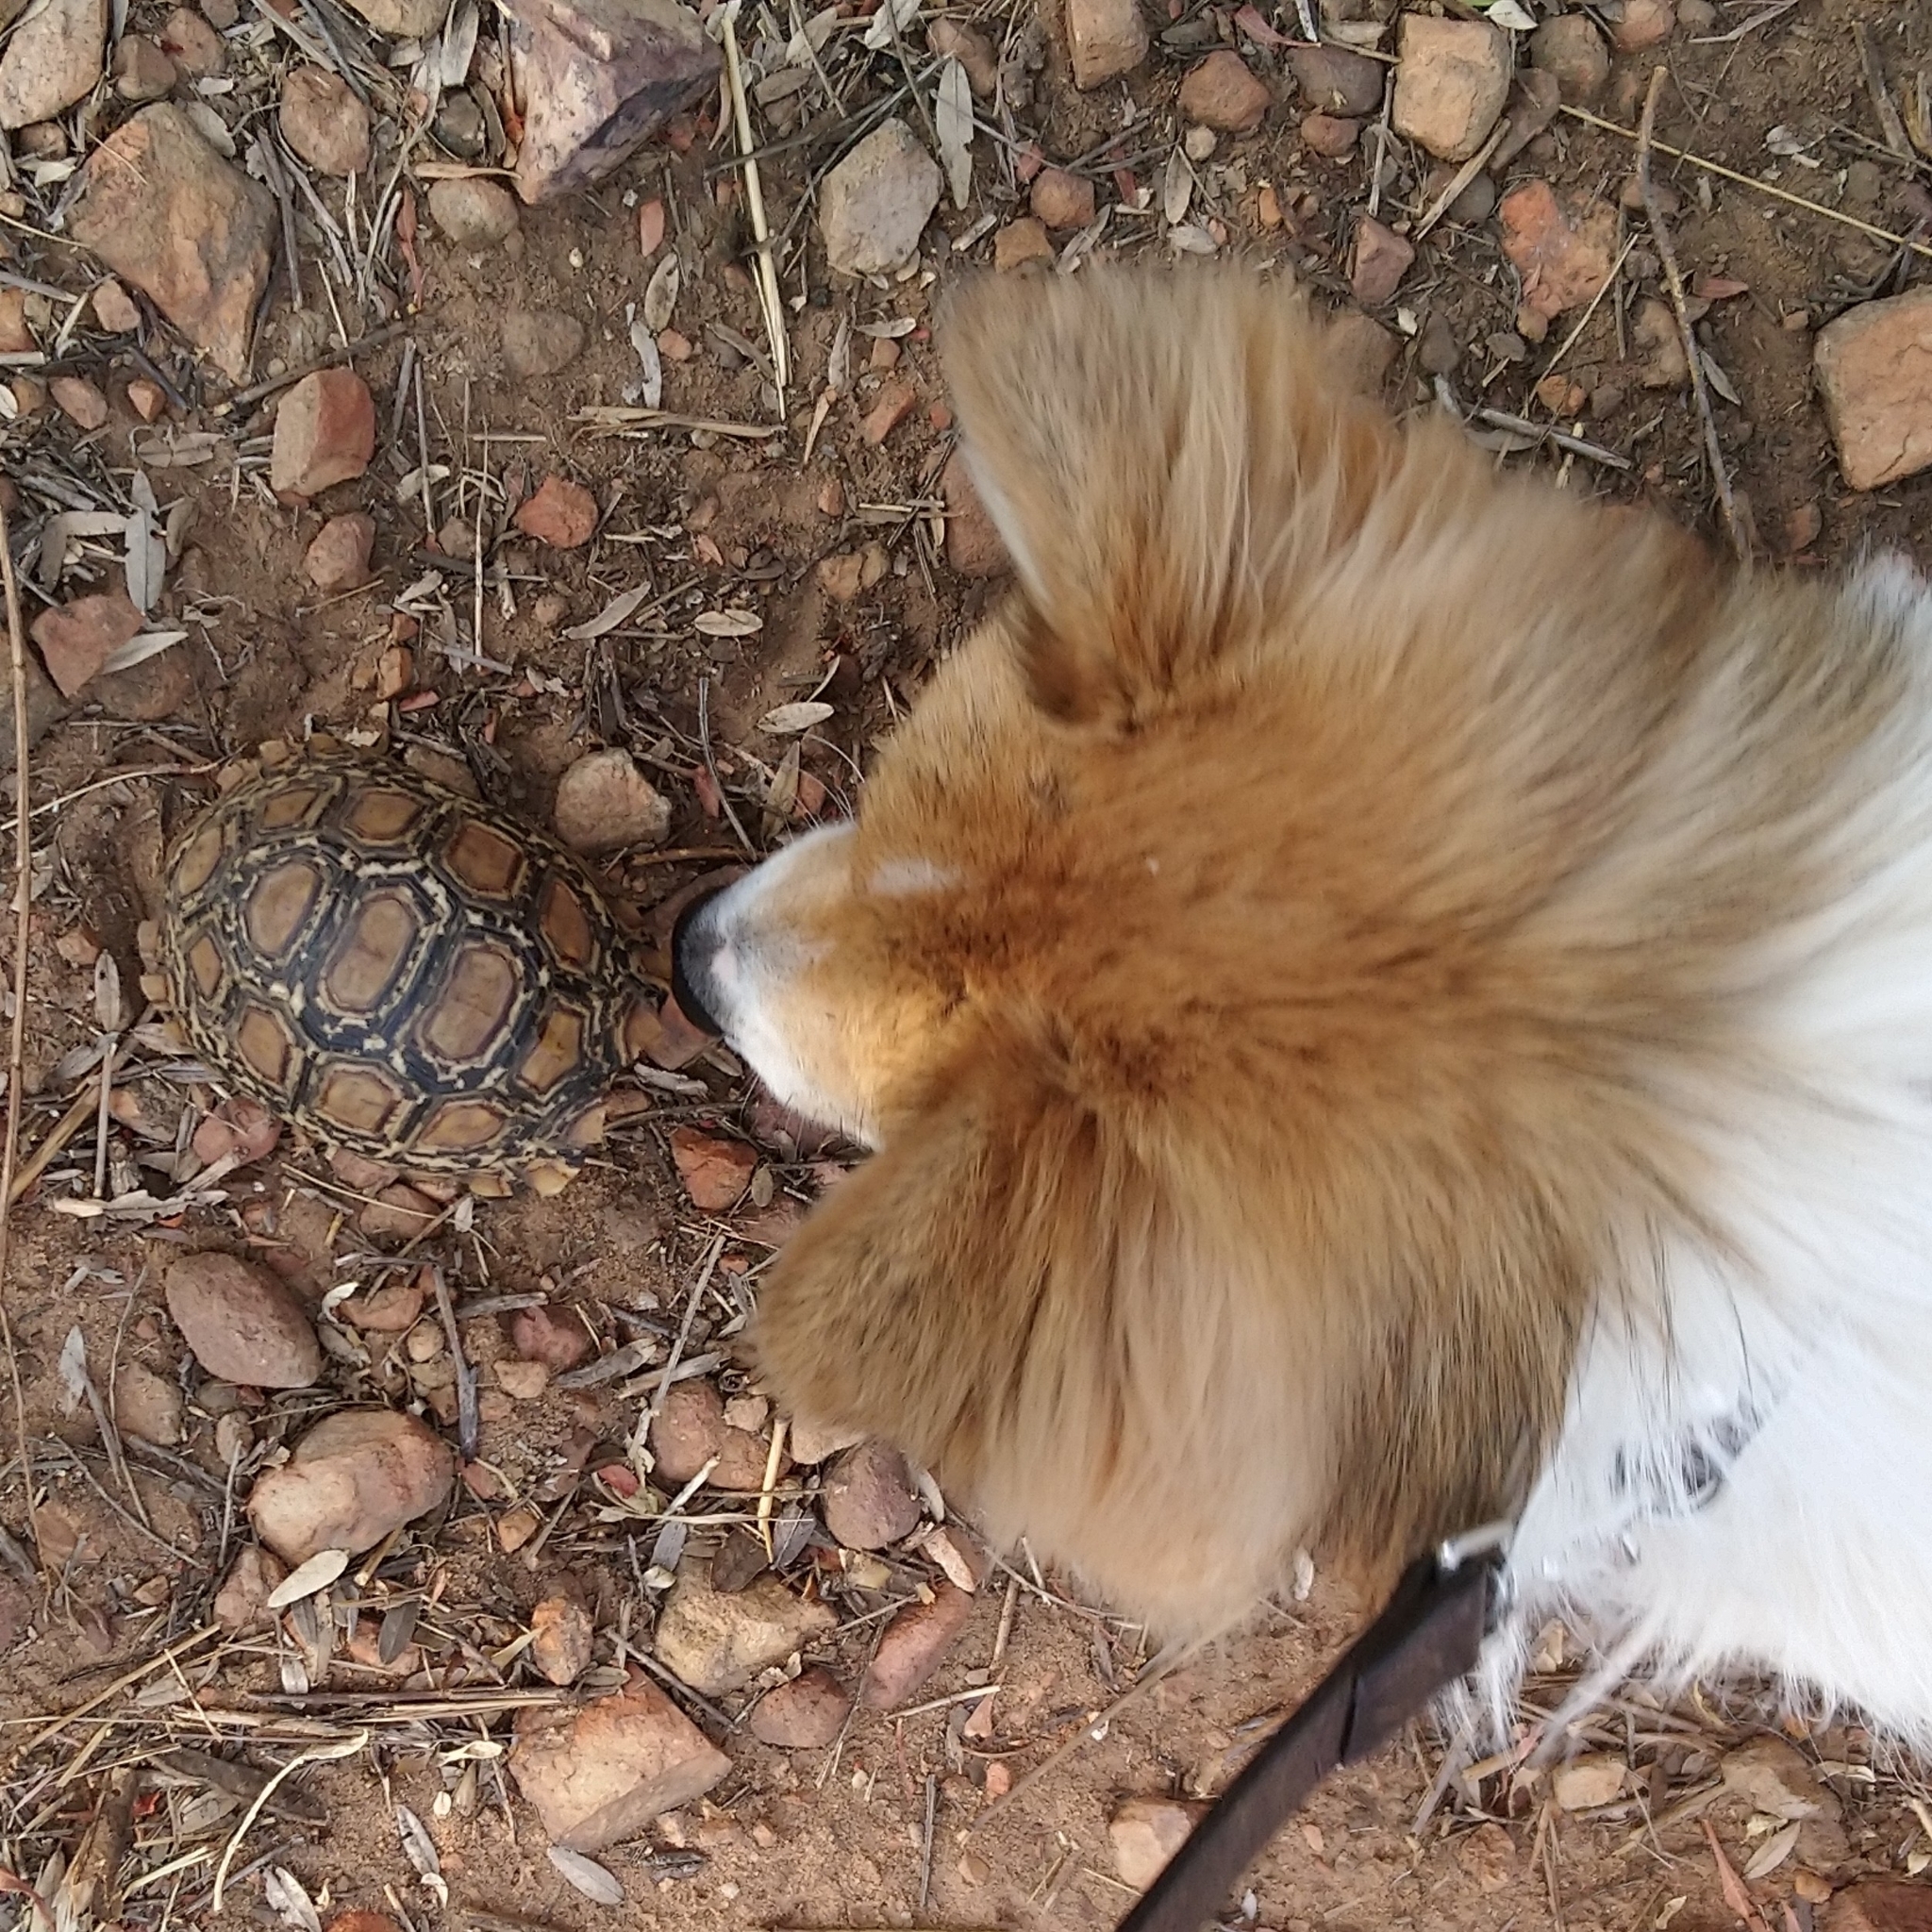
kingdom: Animalia
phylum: Chordata
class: Testudines
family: Testudinidae
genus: Stigmochelys
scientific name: Stigmochelys pardalis
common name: Leopard tortoise
